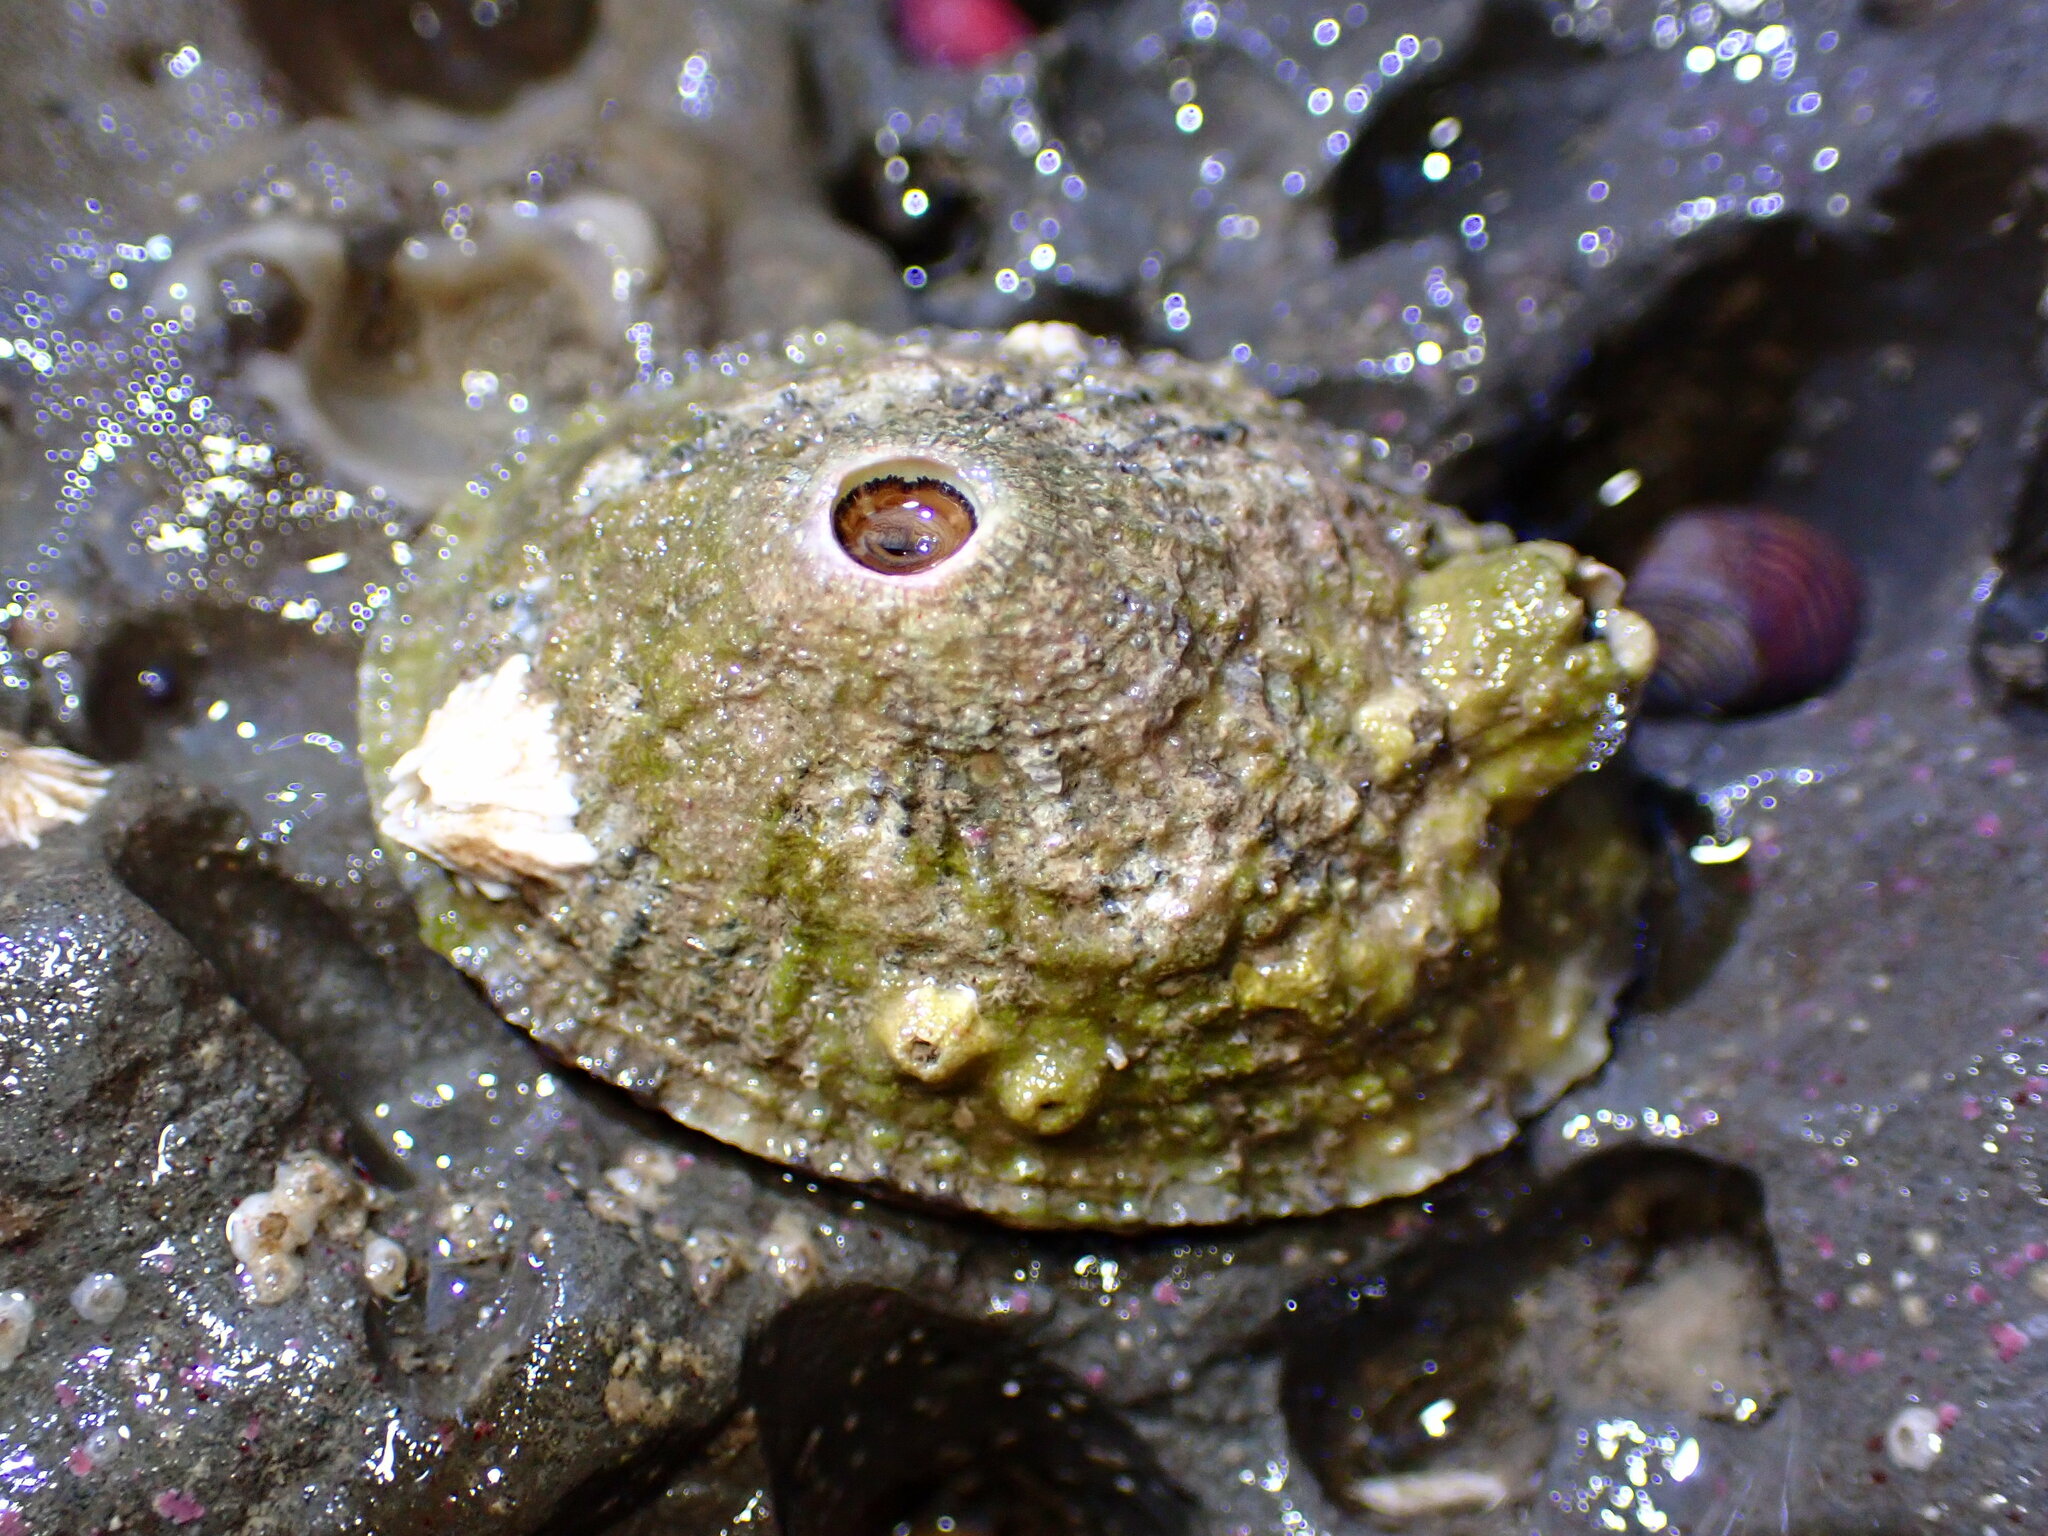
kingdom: Animalia
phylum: Mollusca
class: Gastropoda
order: Lepetellida
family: Fissurellidae
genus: Diodora
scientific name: Diodora aspera
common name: Rough keyhole limpet
